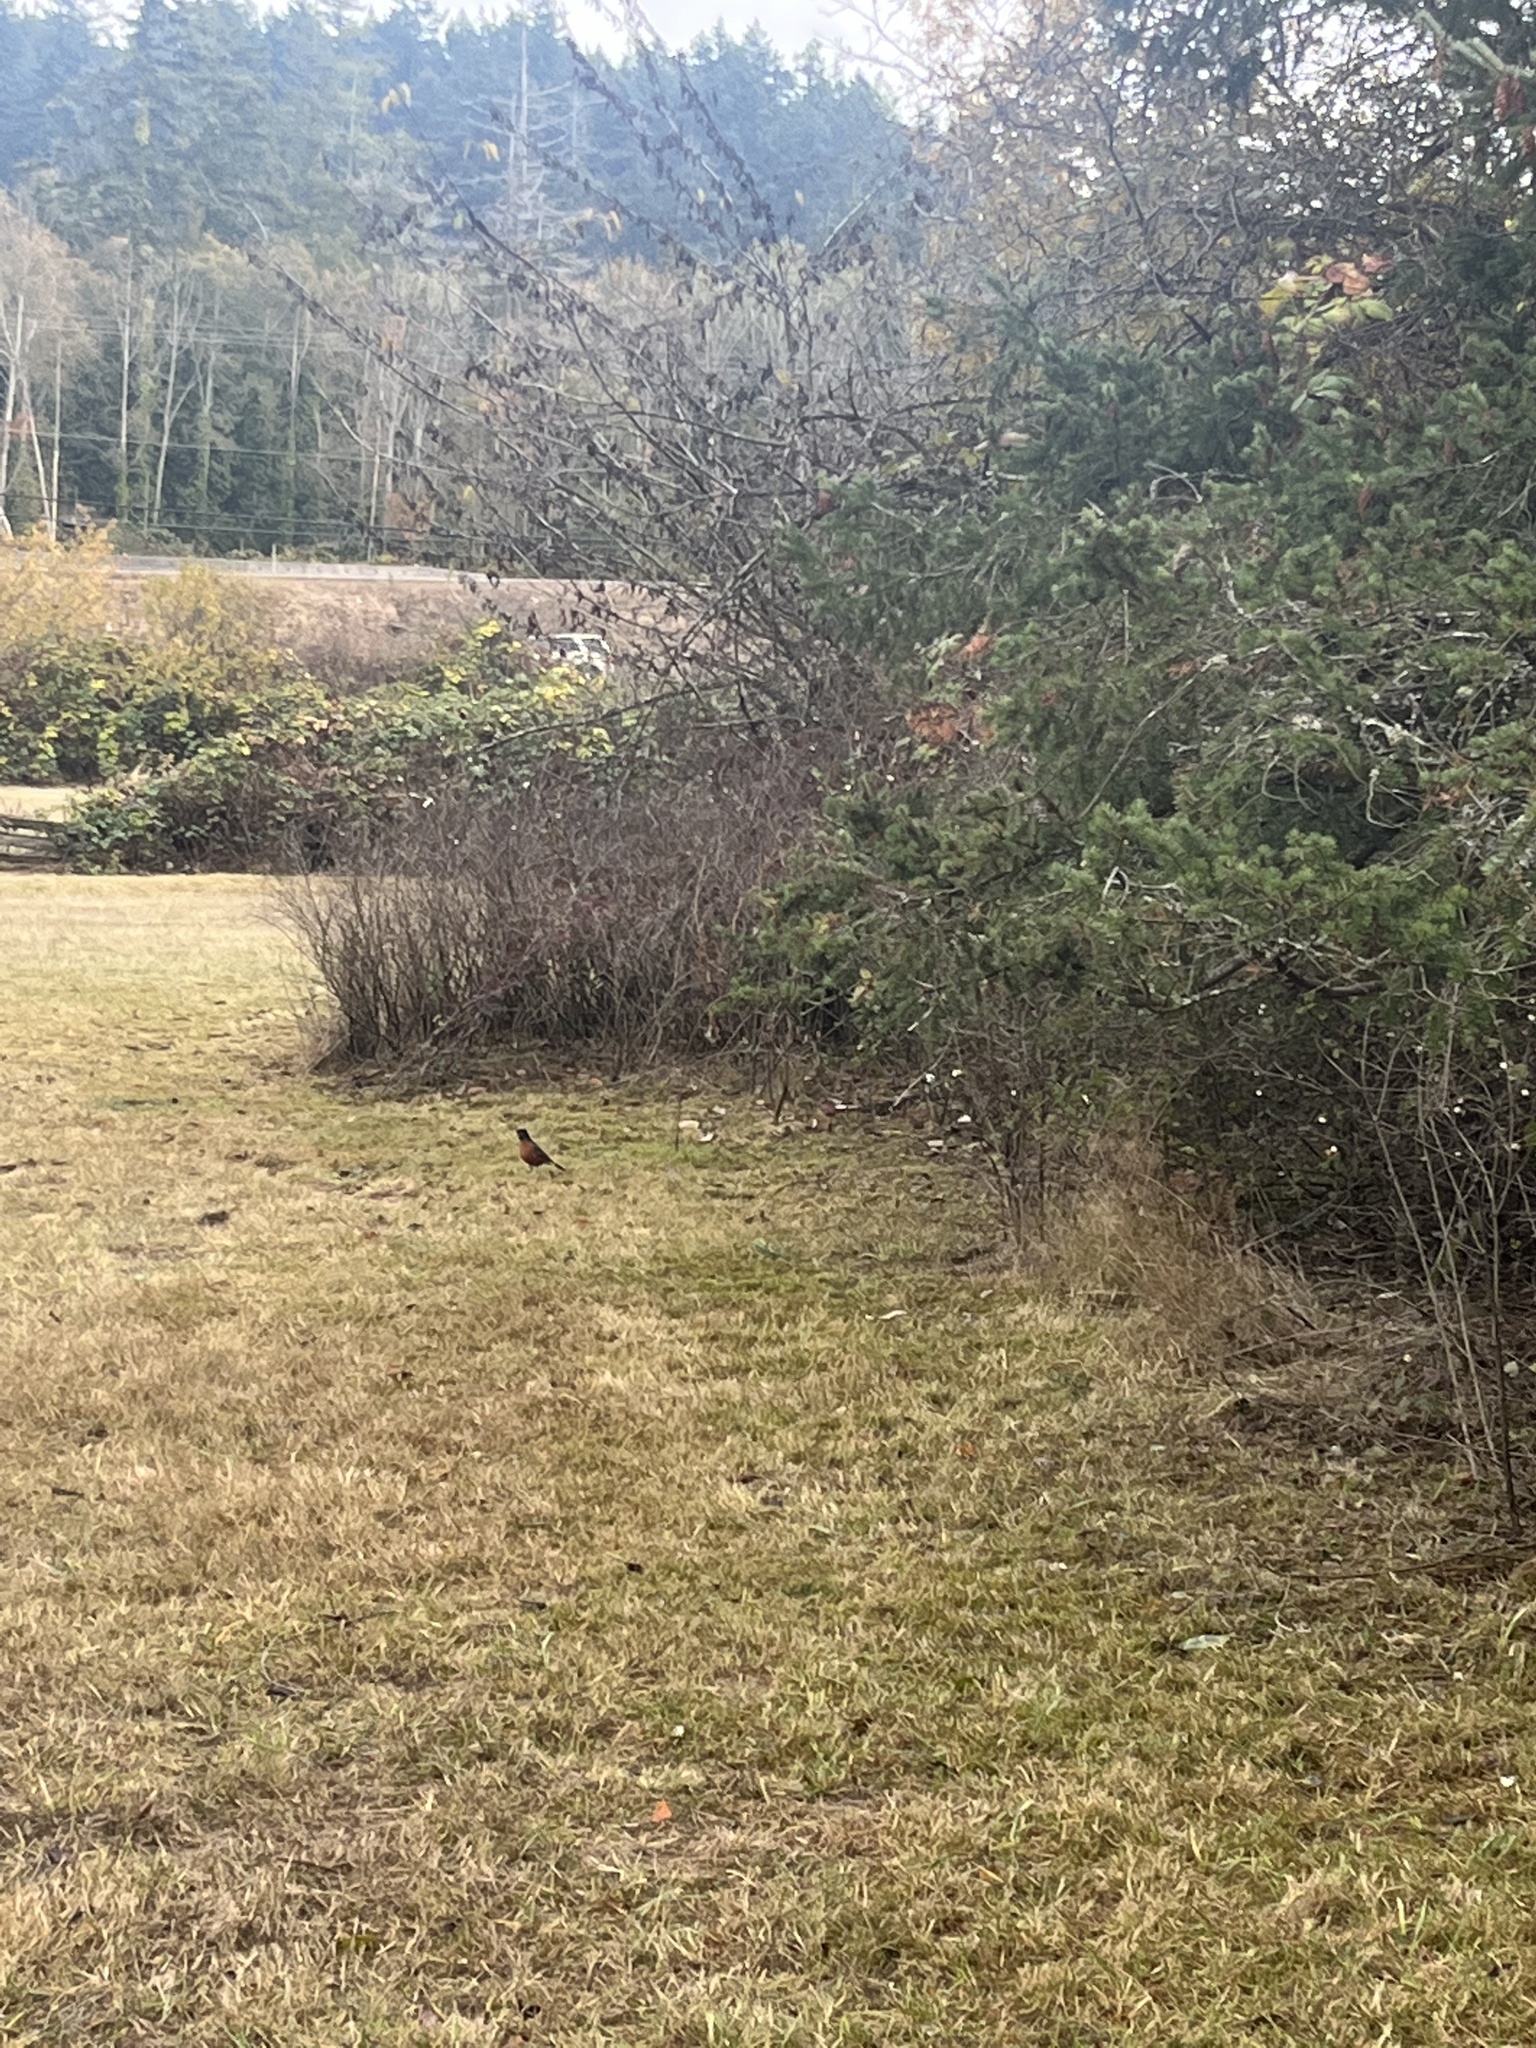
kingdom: Animalia
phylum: Chordata
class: Aves
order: Passeriformes
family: Turdidae
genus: Turdus
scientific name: Turdus migratorius
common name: American robin
